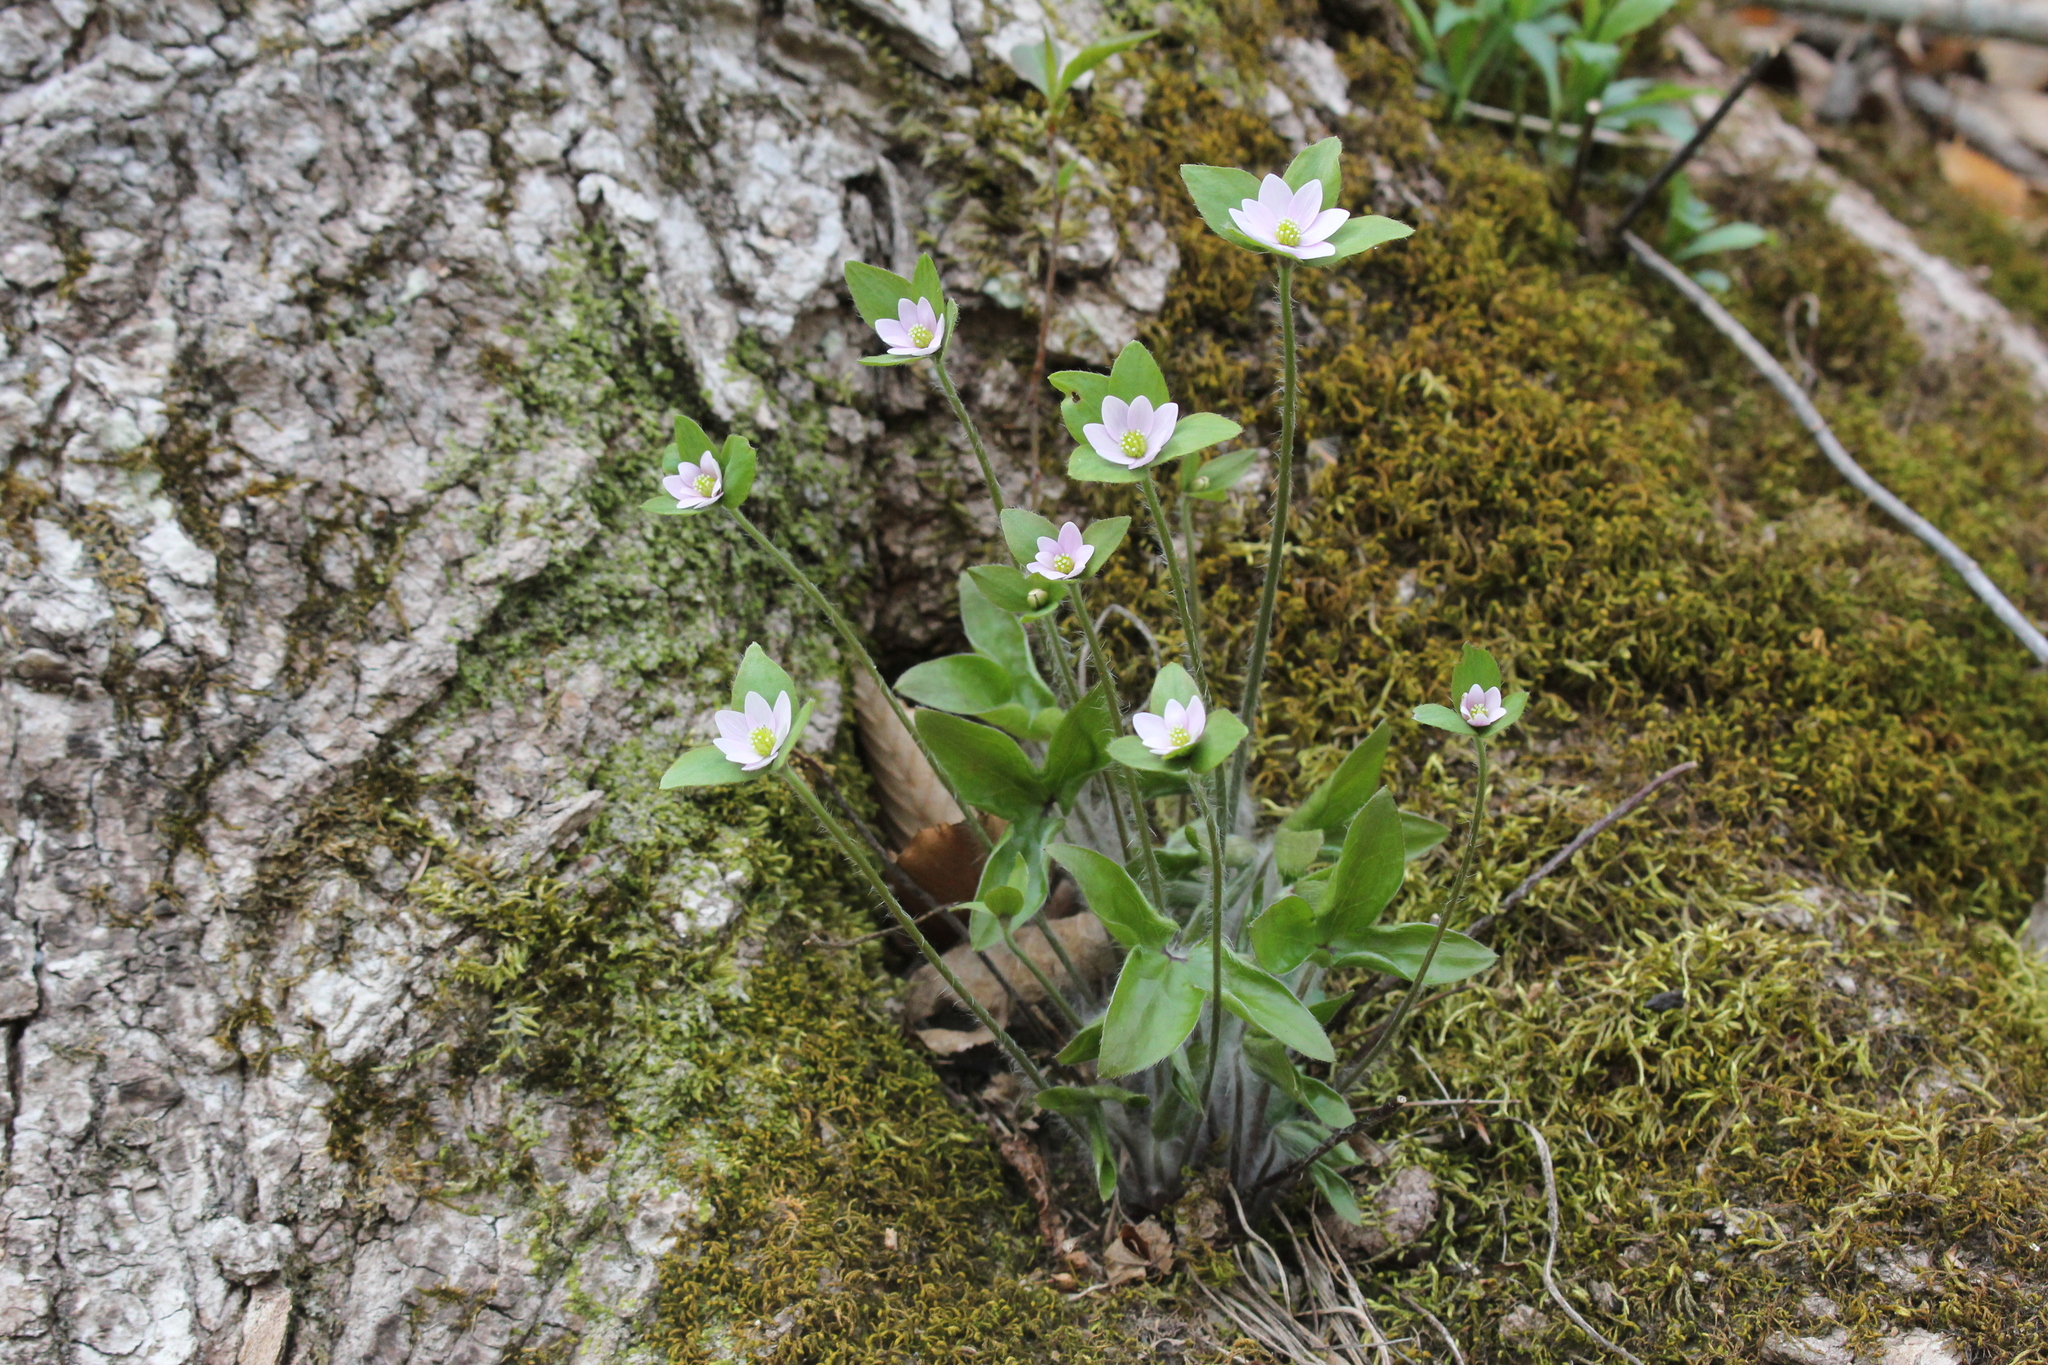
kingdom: Plantae
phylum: Tracheophyta
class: Magnoliopsida
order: Ranunculales
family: Ranunculaceae
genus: Hepatica
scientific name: Hepatica acutiloba
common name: Sharp-lobed hepatica
